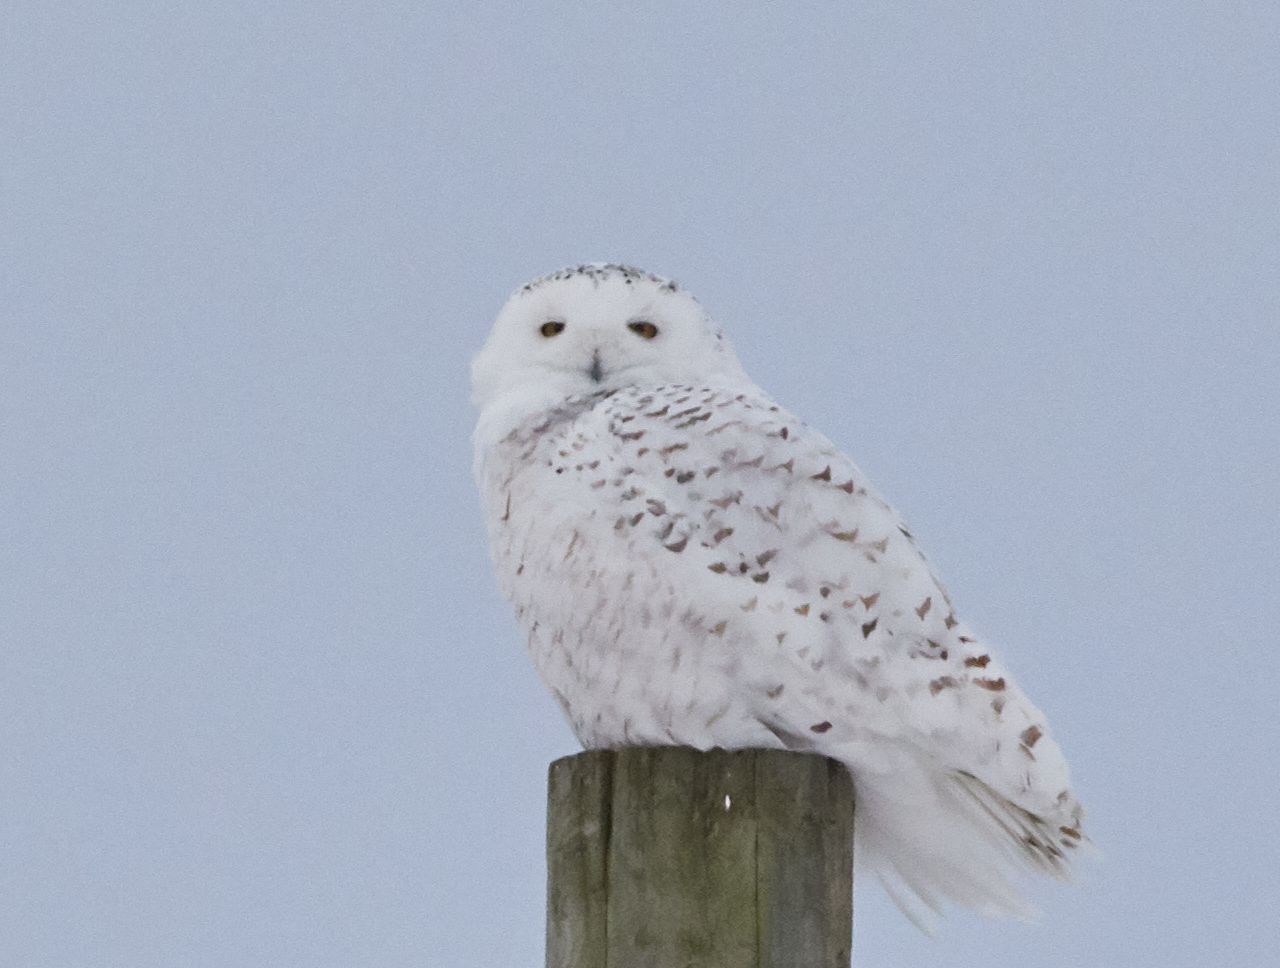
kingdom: Animalia
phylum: Chordata
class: Aves
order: Strigiformes
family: Strigidae
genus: Bubo
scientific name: Bubo scandiacus
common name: Snowy owl
